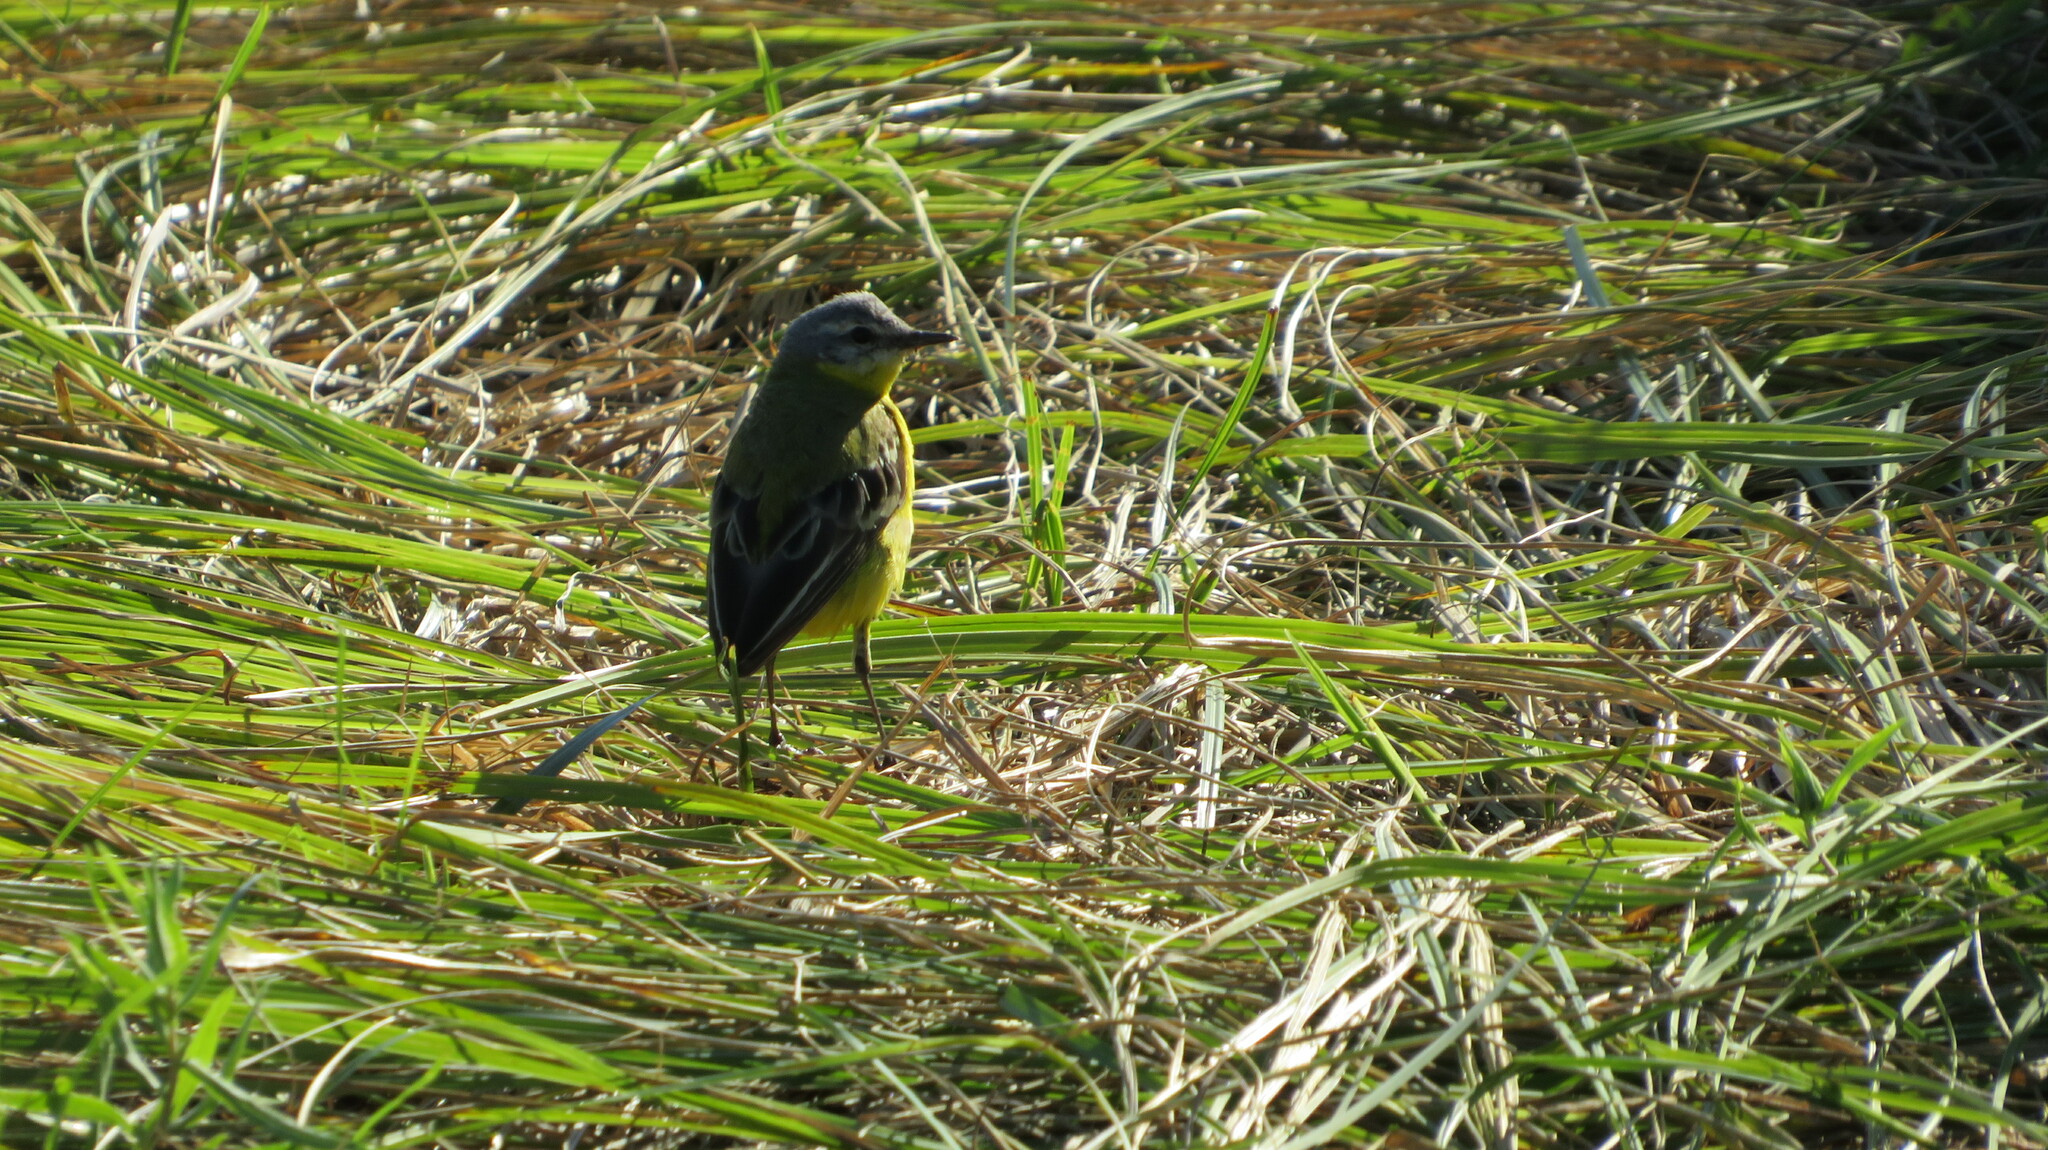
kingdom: Animalia
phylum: Chordata
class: Aves
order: Passeriformes
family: Motacillidae
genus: Motacilla
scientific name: Motacilla flava
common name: Western yellow wagtail
